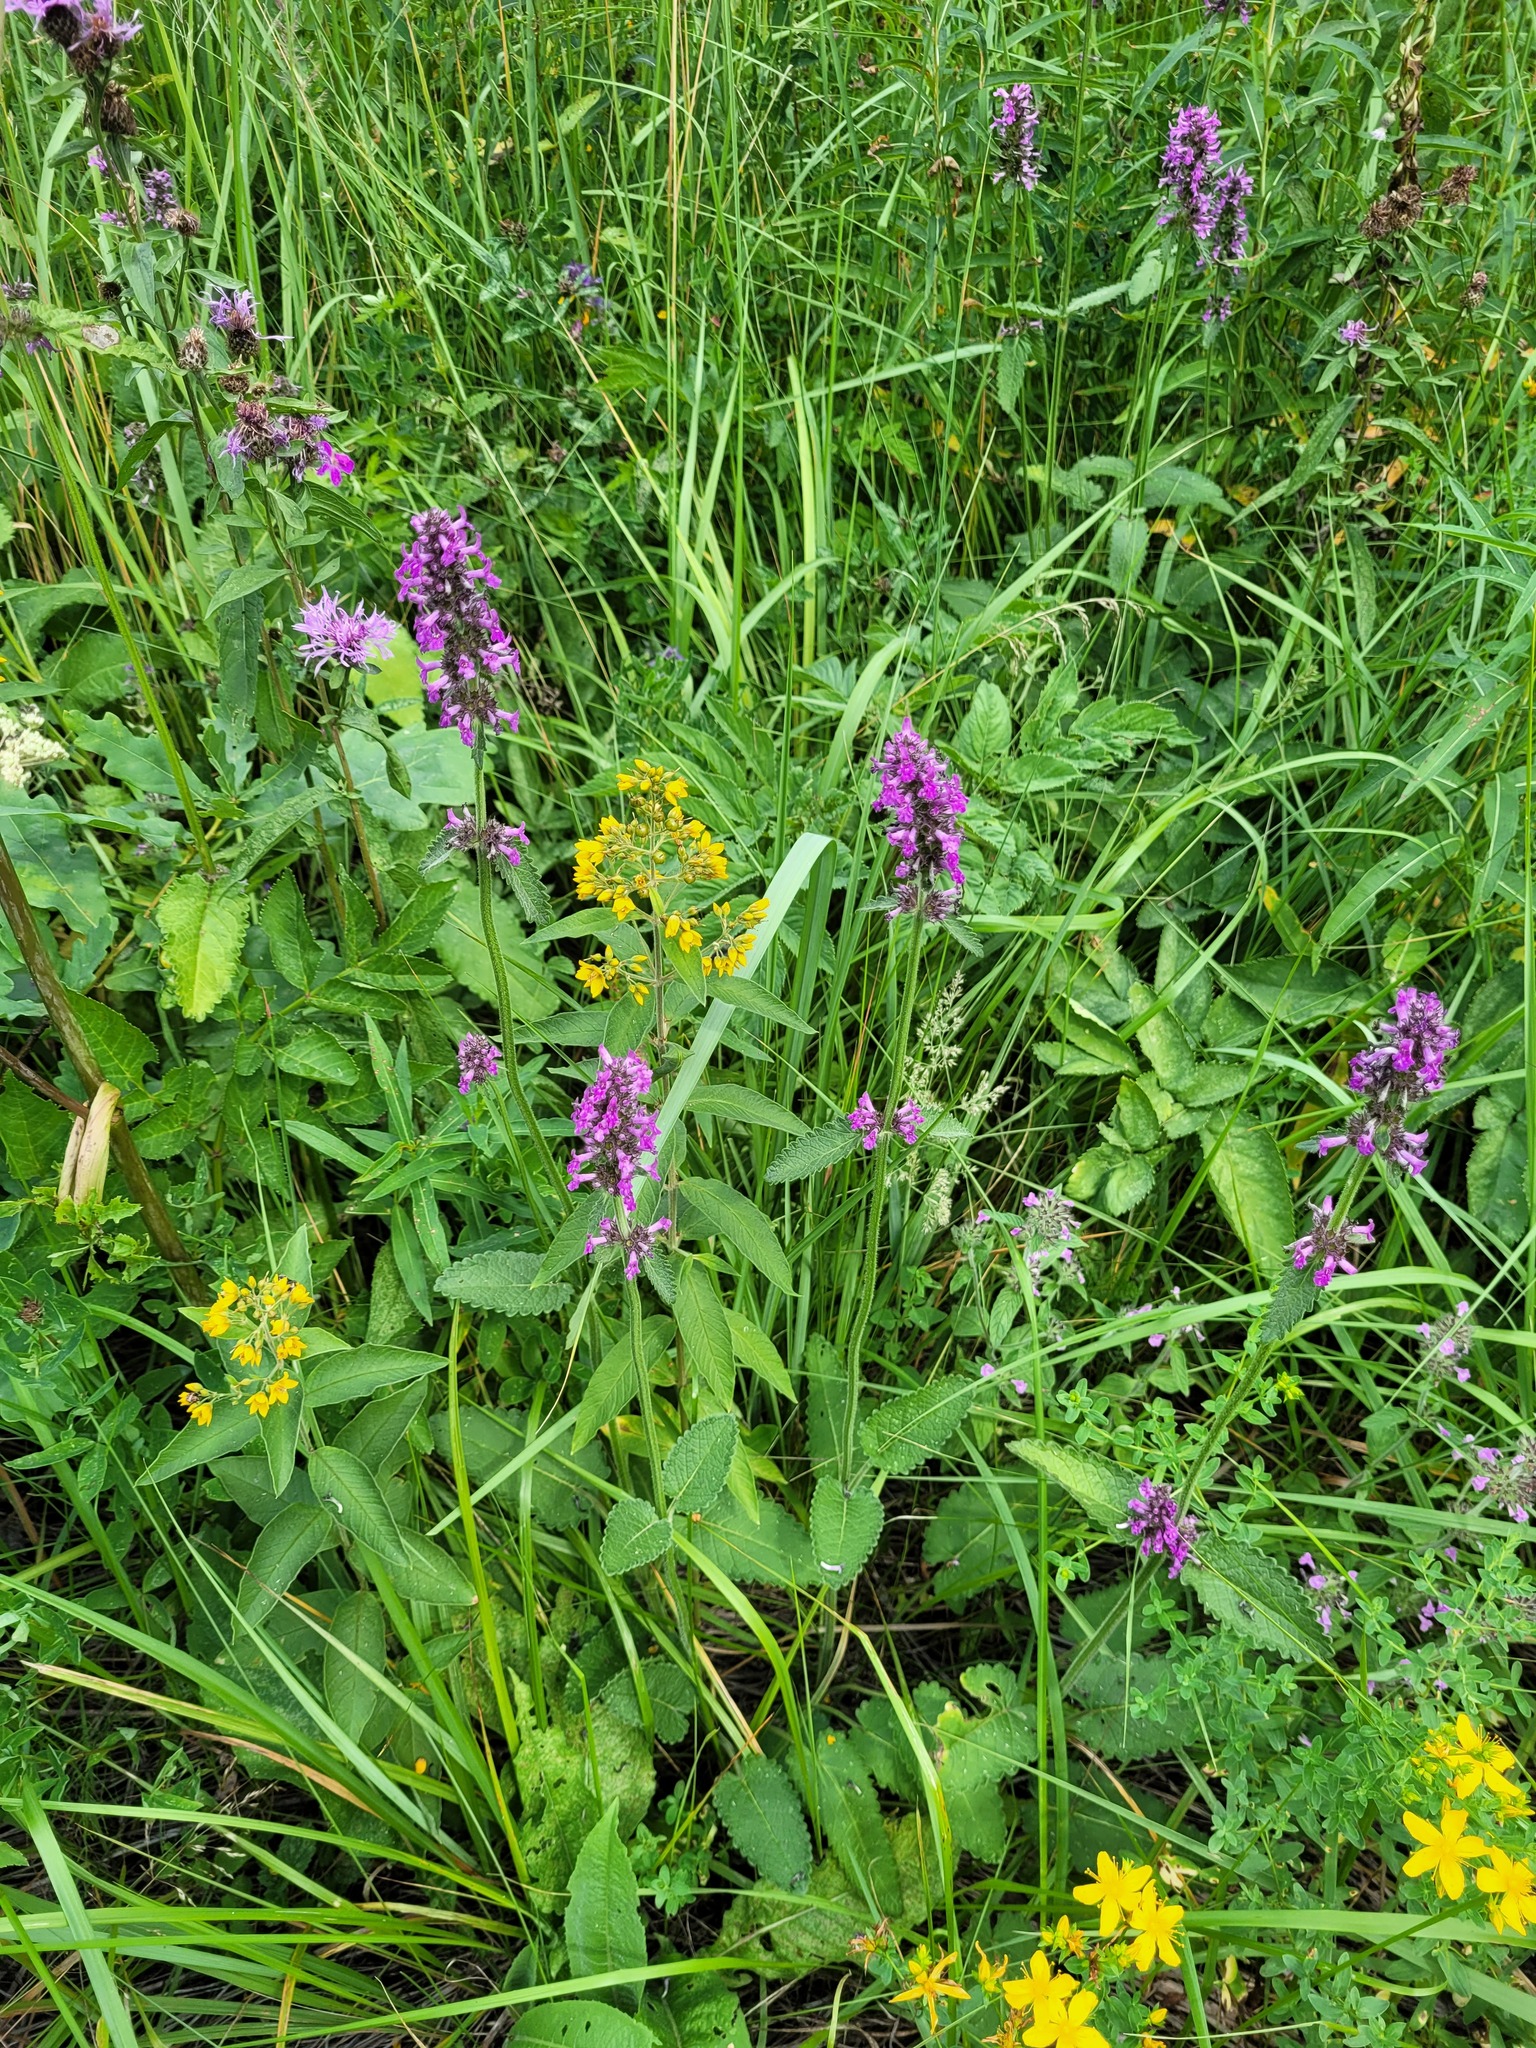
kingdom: Plantae
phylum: Tracheophyta
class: Magnoliopsida
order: Lamiales
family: Lamiaceae
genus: Betonica
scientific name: Betonica officinalis
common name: Bishop's-wort
